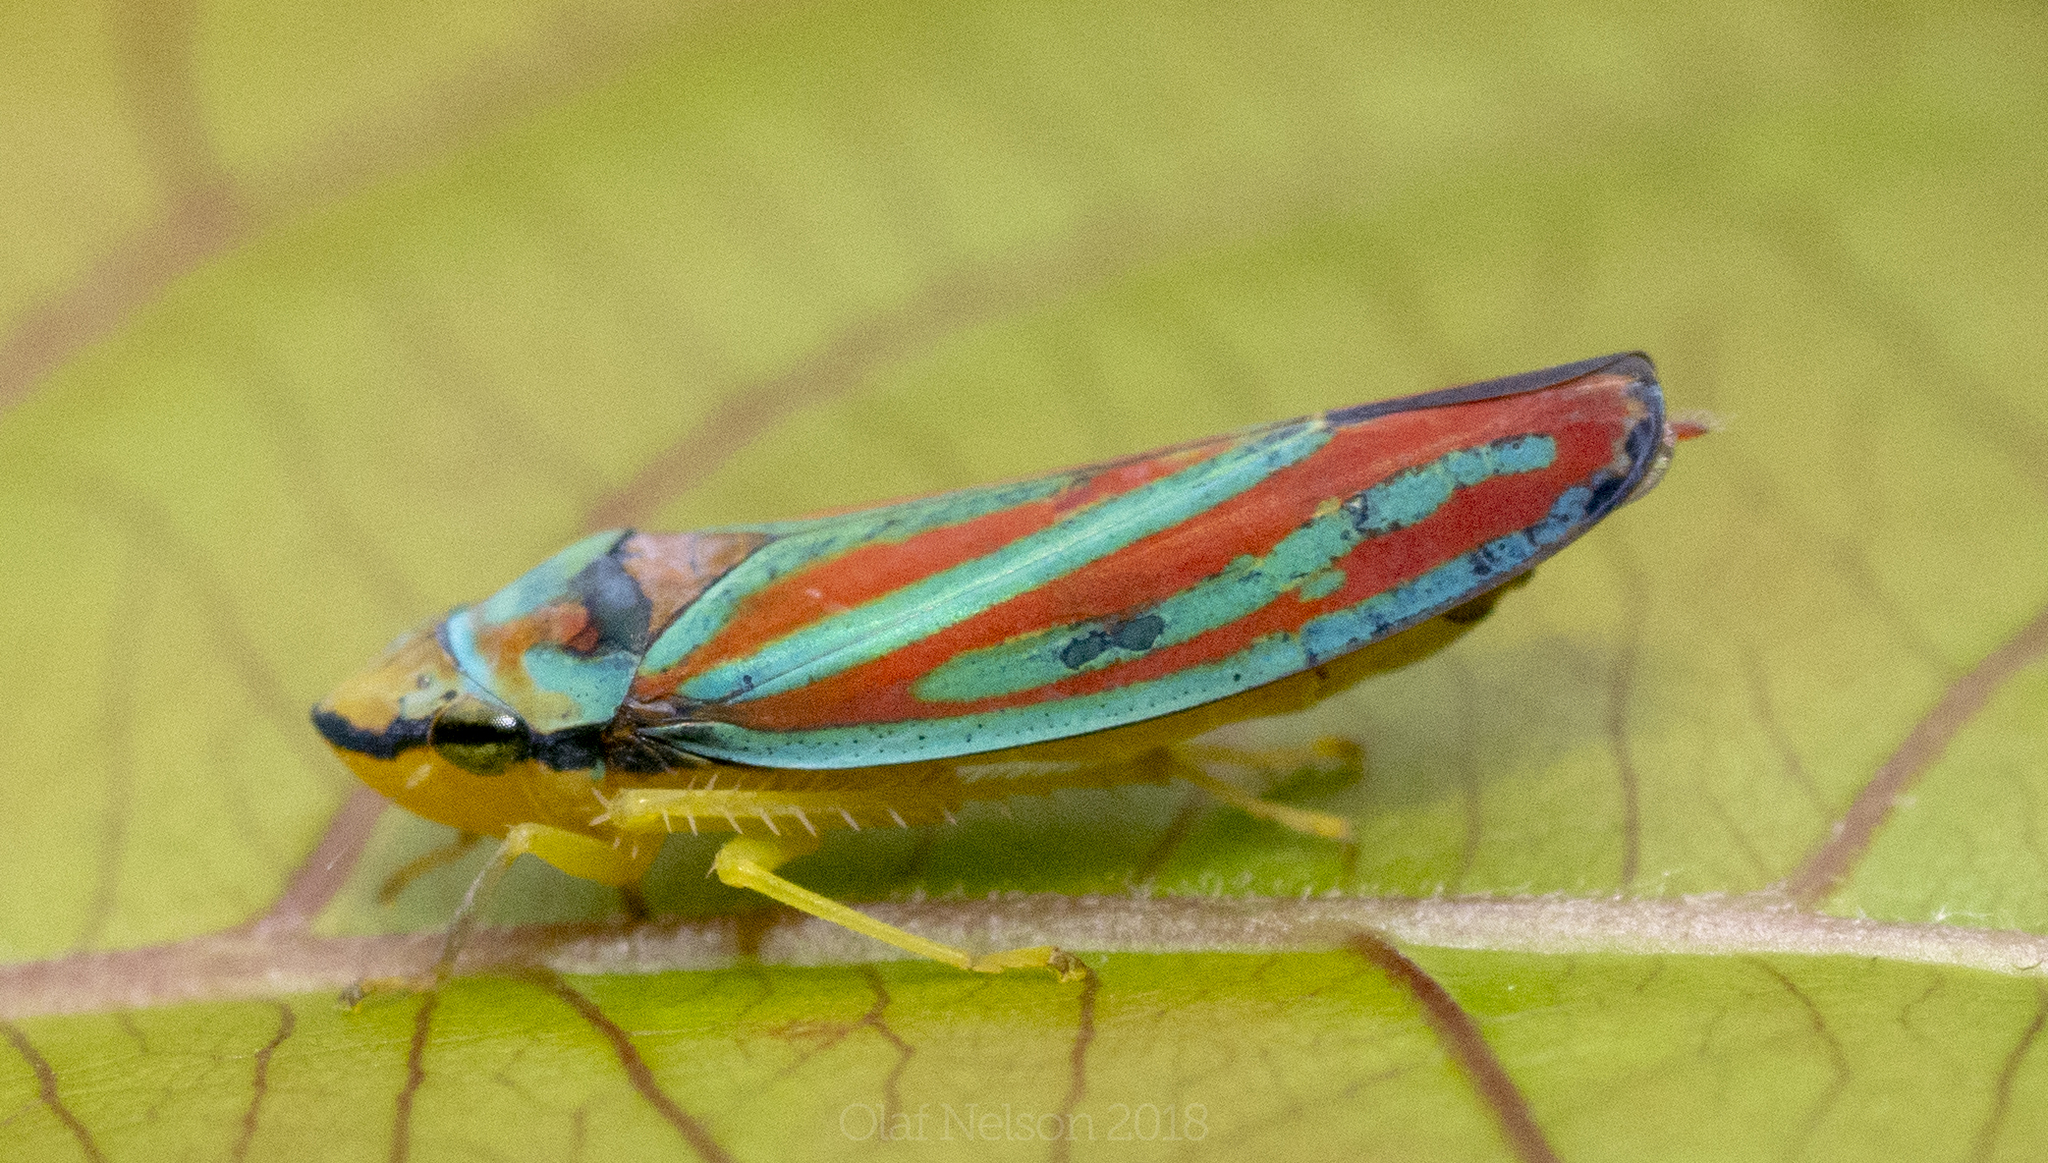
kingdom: Animalia
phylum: Arthropoda
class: Insecta
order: Hemiptera
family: Cicadellidae
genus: Graphocephala
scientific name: Graphocephala coccinea
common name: Candy-striped leafhopper
